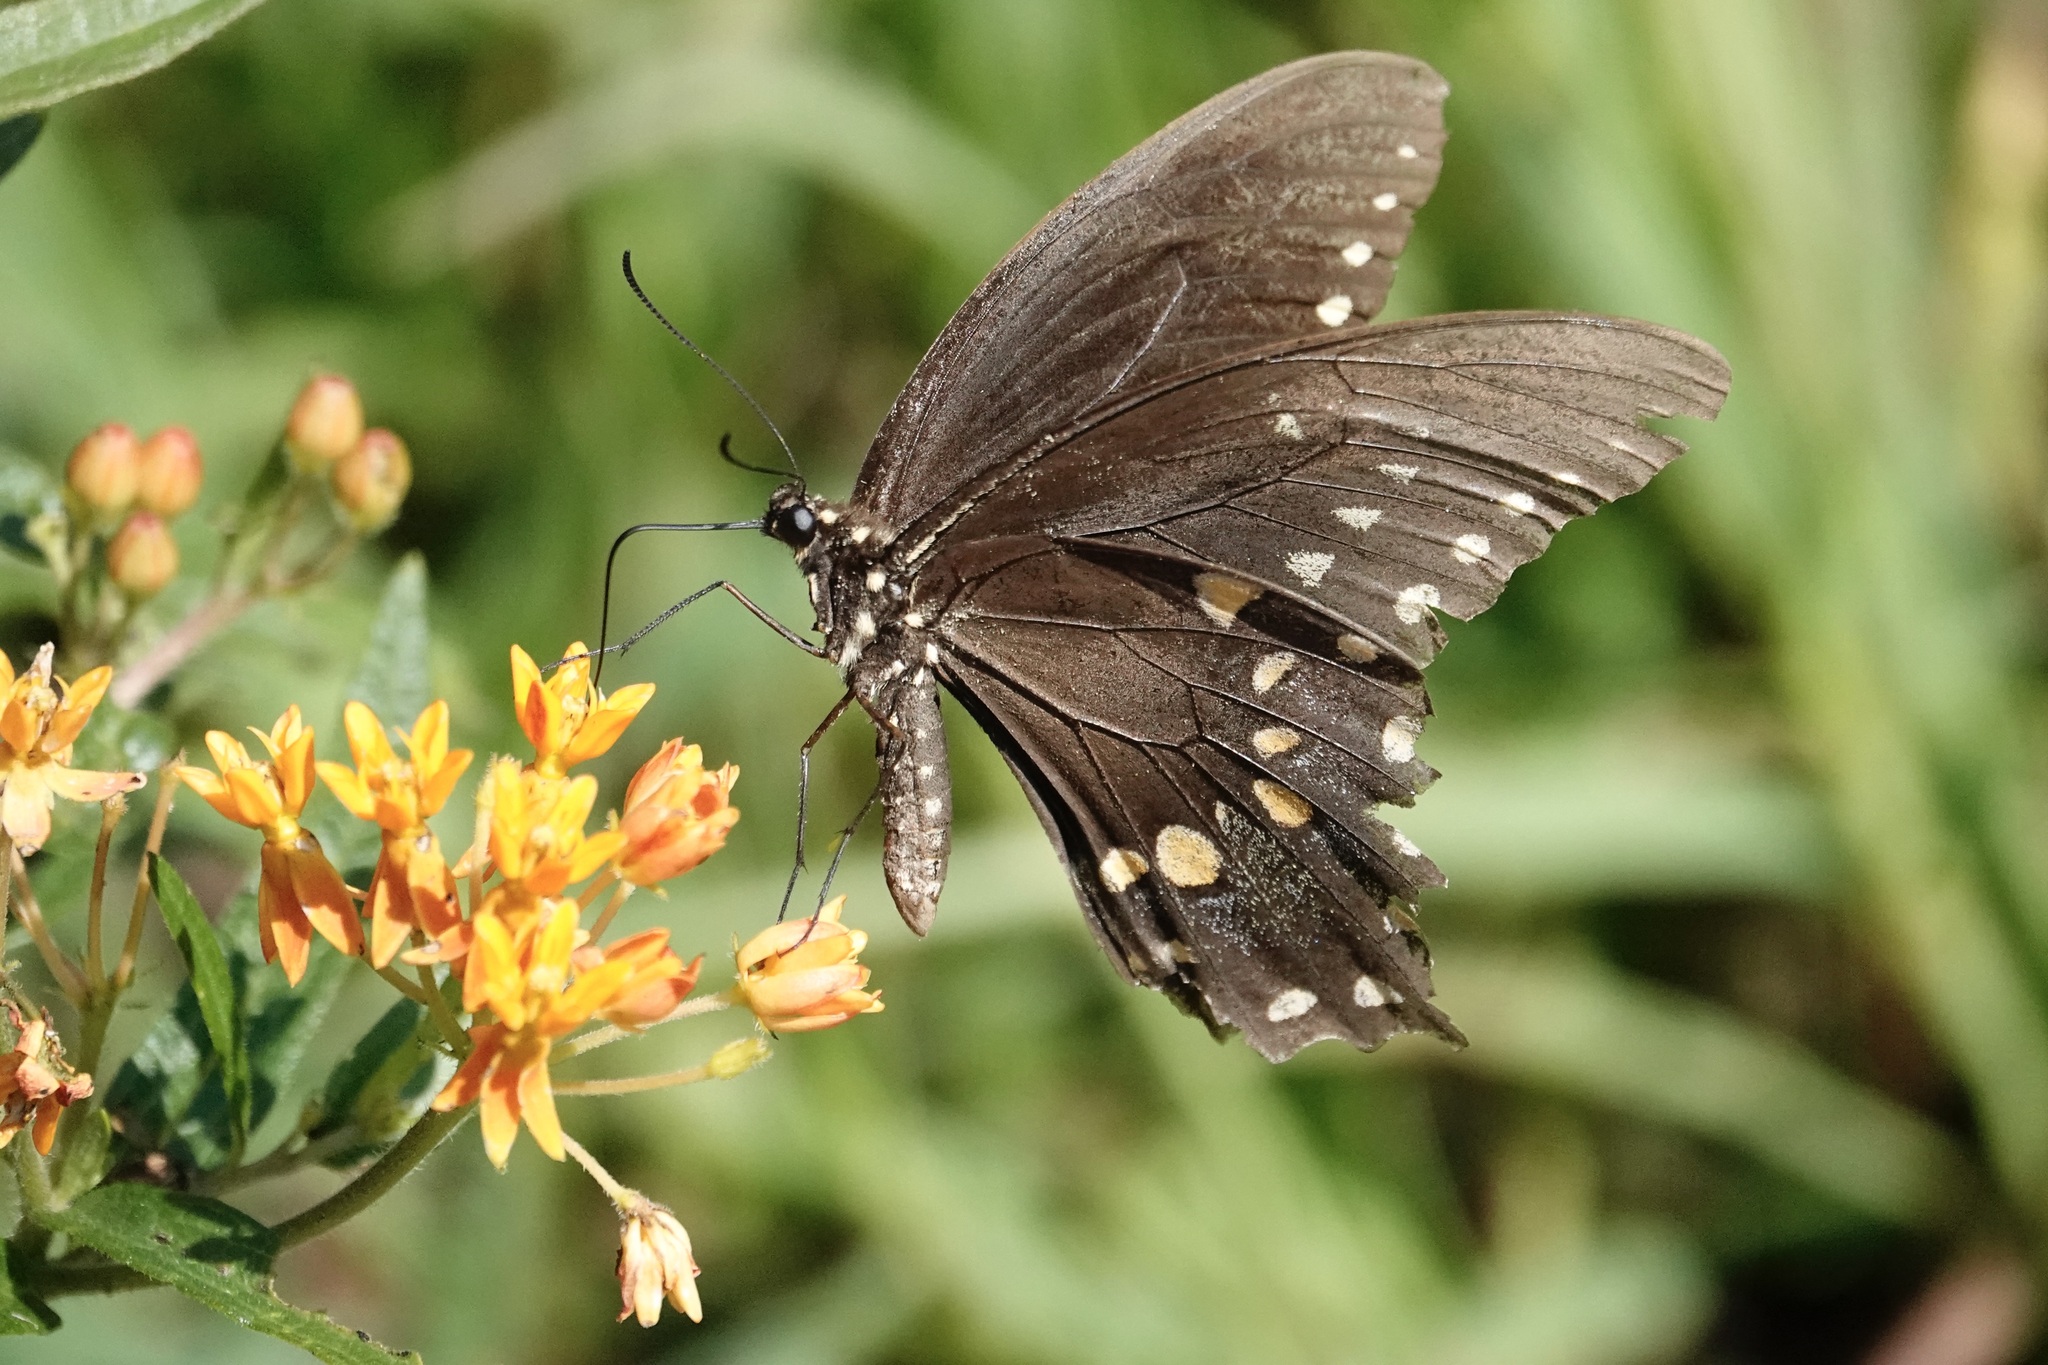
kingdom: Animalia
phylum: Arthropoda
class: Insecta
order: Lepidoptera
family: Papilionidae
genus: Papilio
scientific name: Papilio troilus
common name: Spicebush swallowtail
